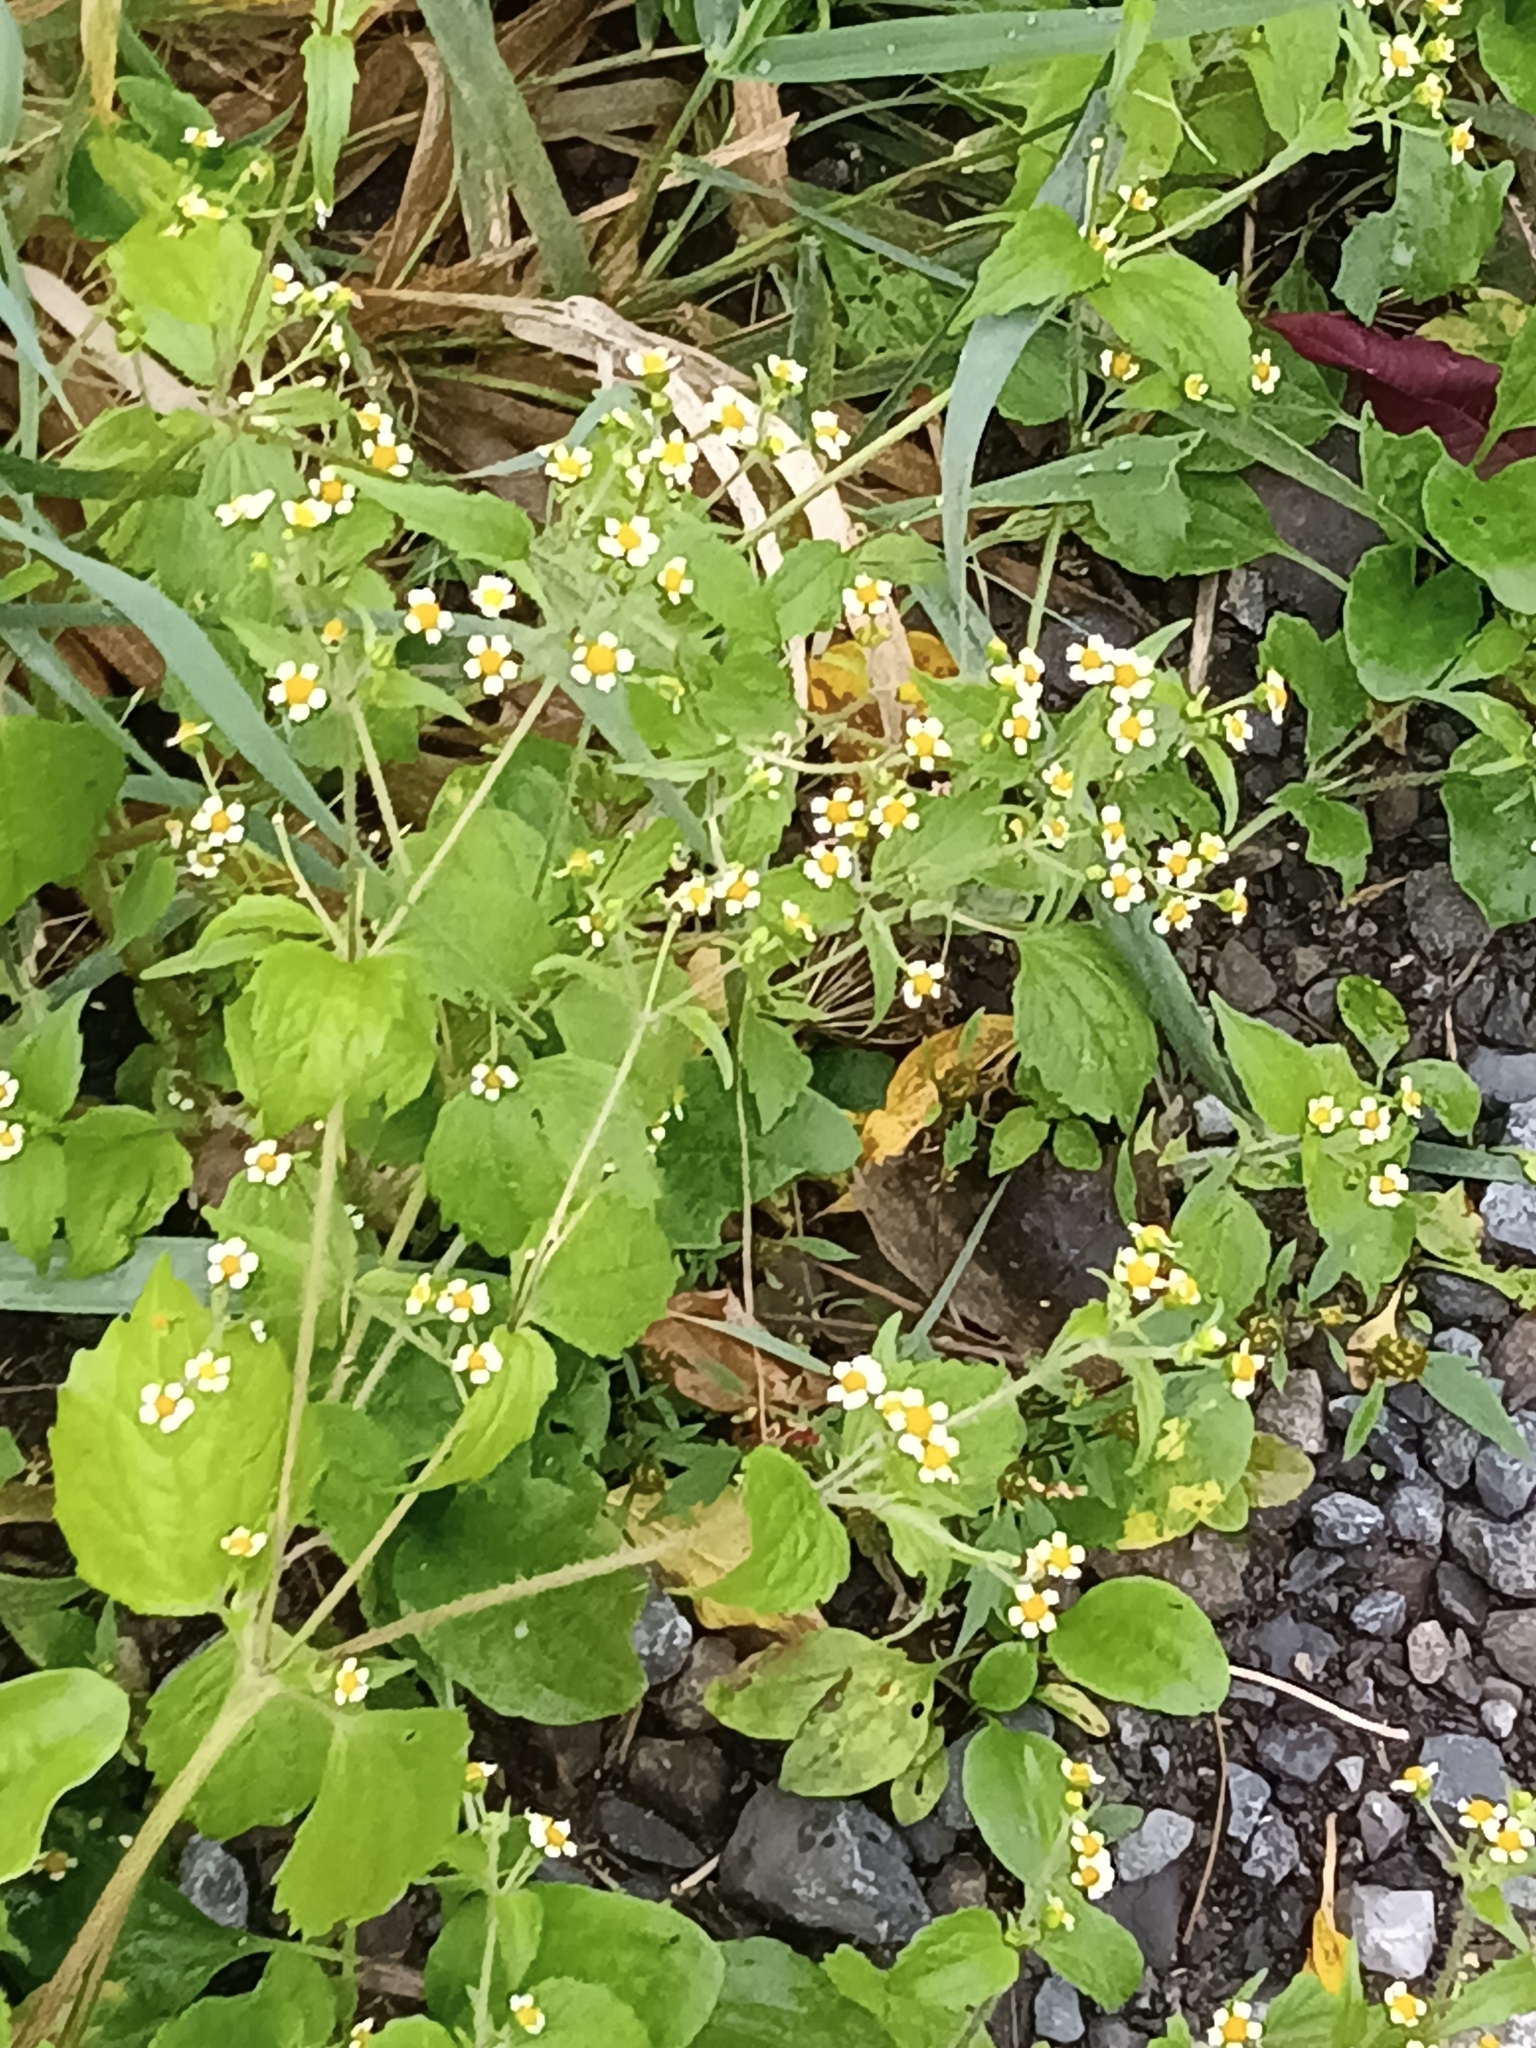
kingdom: Plantae
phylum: Tracheophyta
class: Magnoliopsida
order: Asterales
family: Asteraceae
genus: Galinsoga
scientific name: Galinsoga quadriradiata
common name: Shaggy soldier
